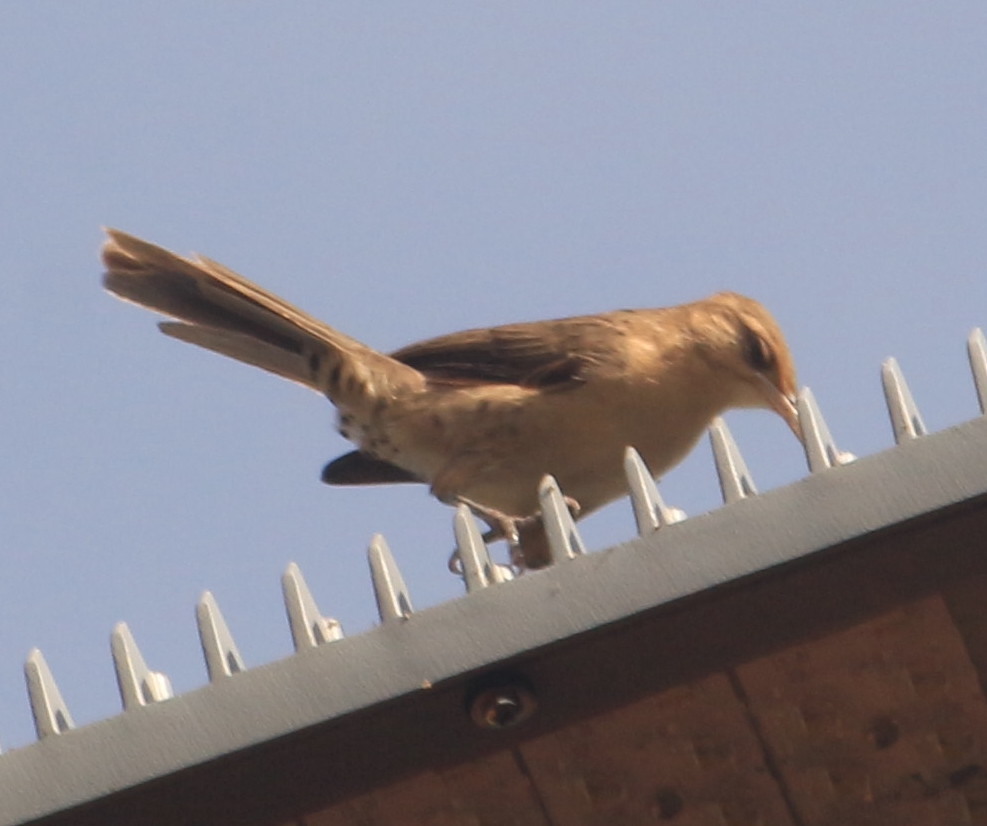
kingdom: Animalia
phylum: Chordata
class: Aves
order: Passeriformes
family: Troglodytidae
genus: Campylorhynchus
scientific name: Campylorhynchus turdinus
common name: Thrush-like wren
